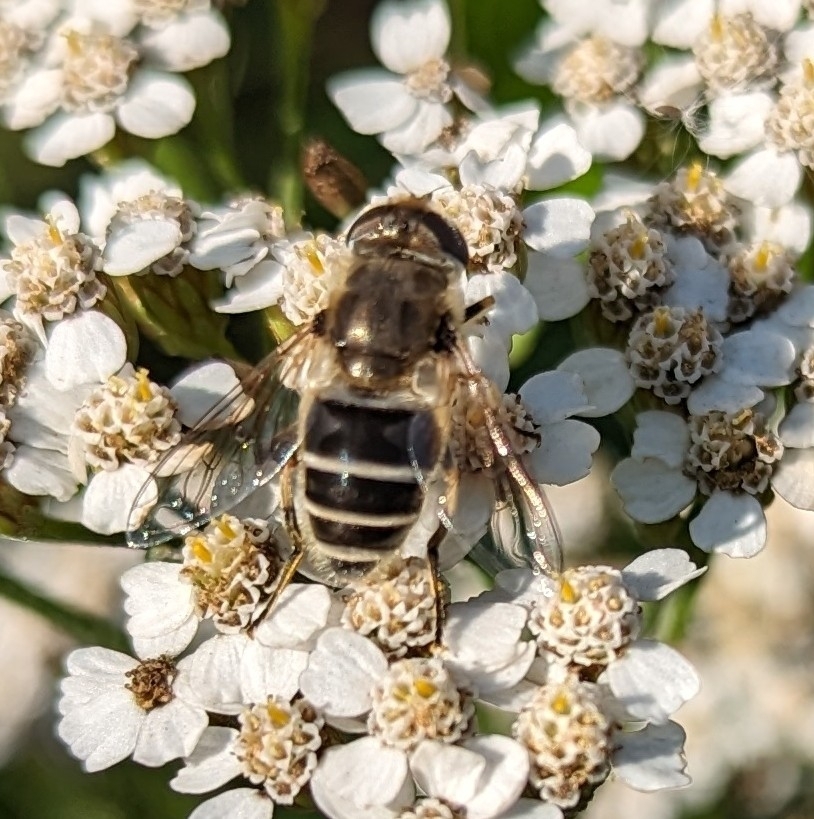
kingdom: Animalia
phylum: Arthropoda
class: Insecta
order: Diptera
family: Syrphidae
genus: Eristalis
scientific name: Eristalis
